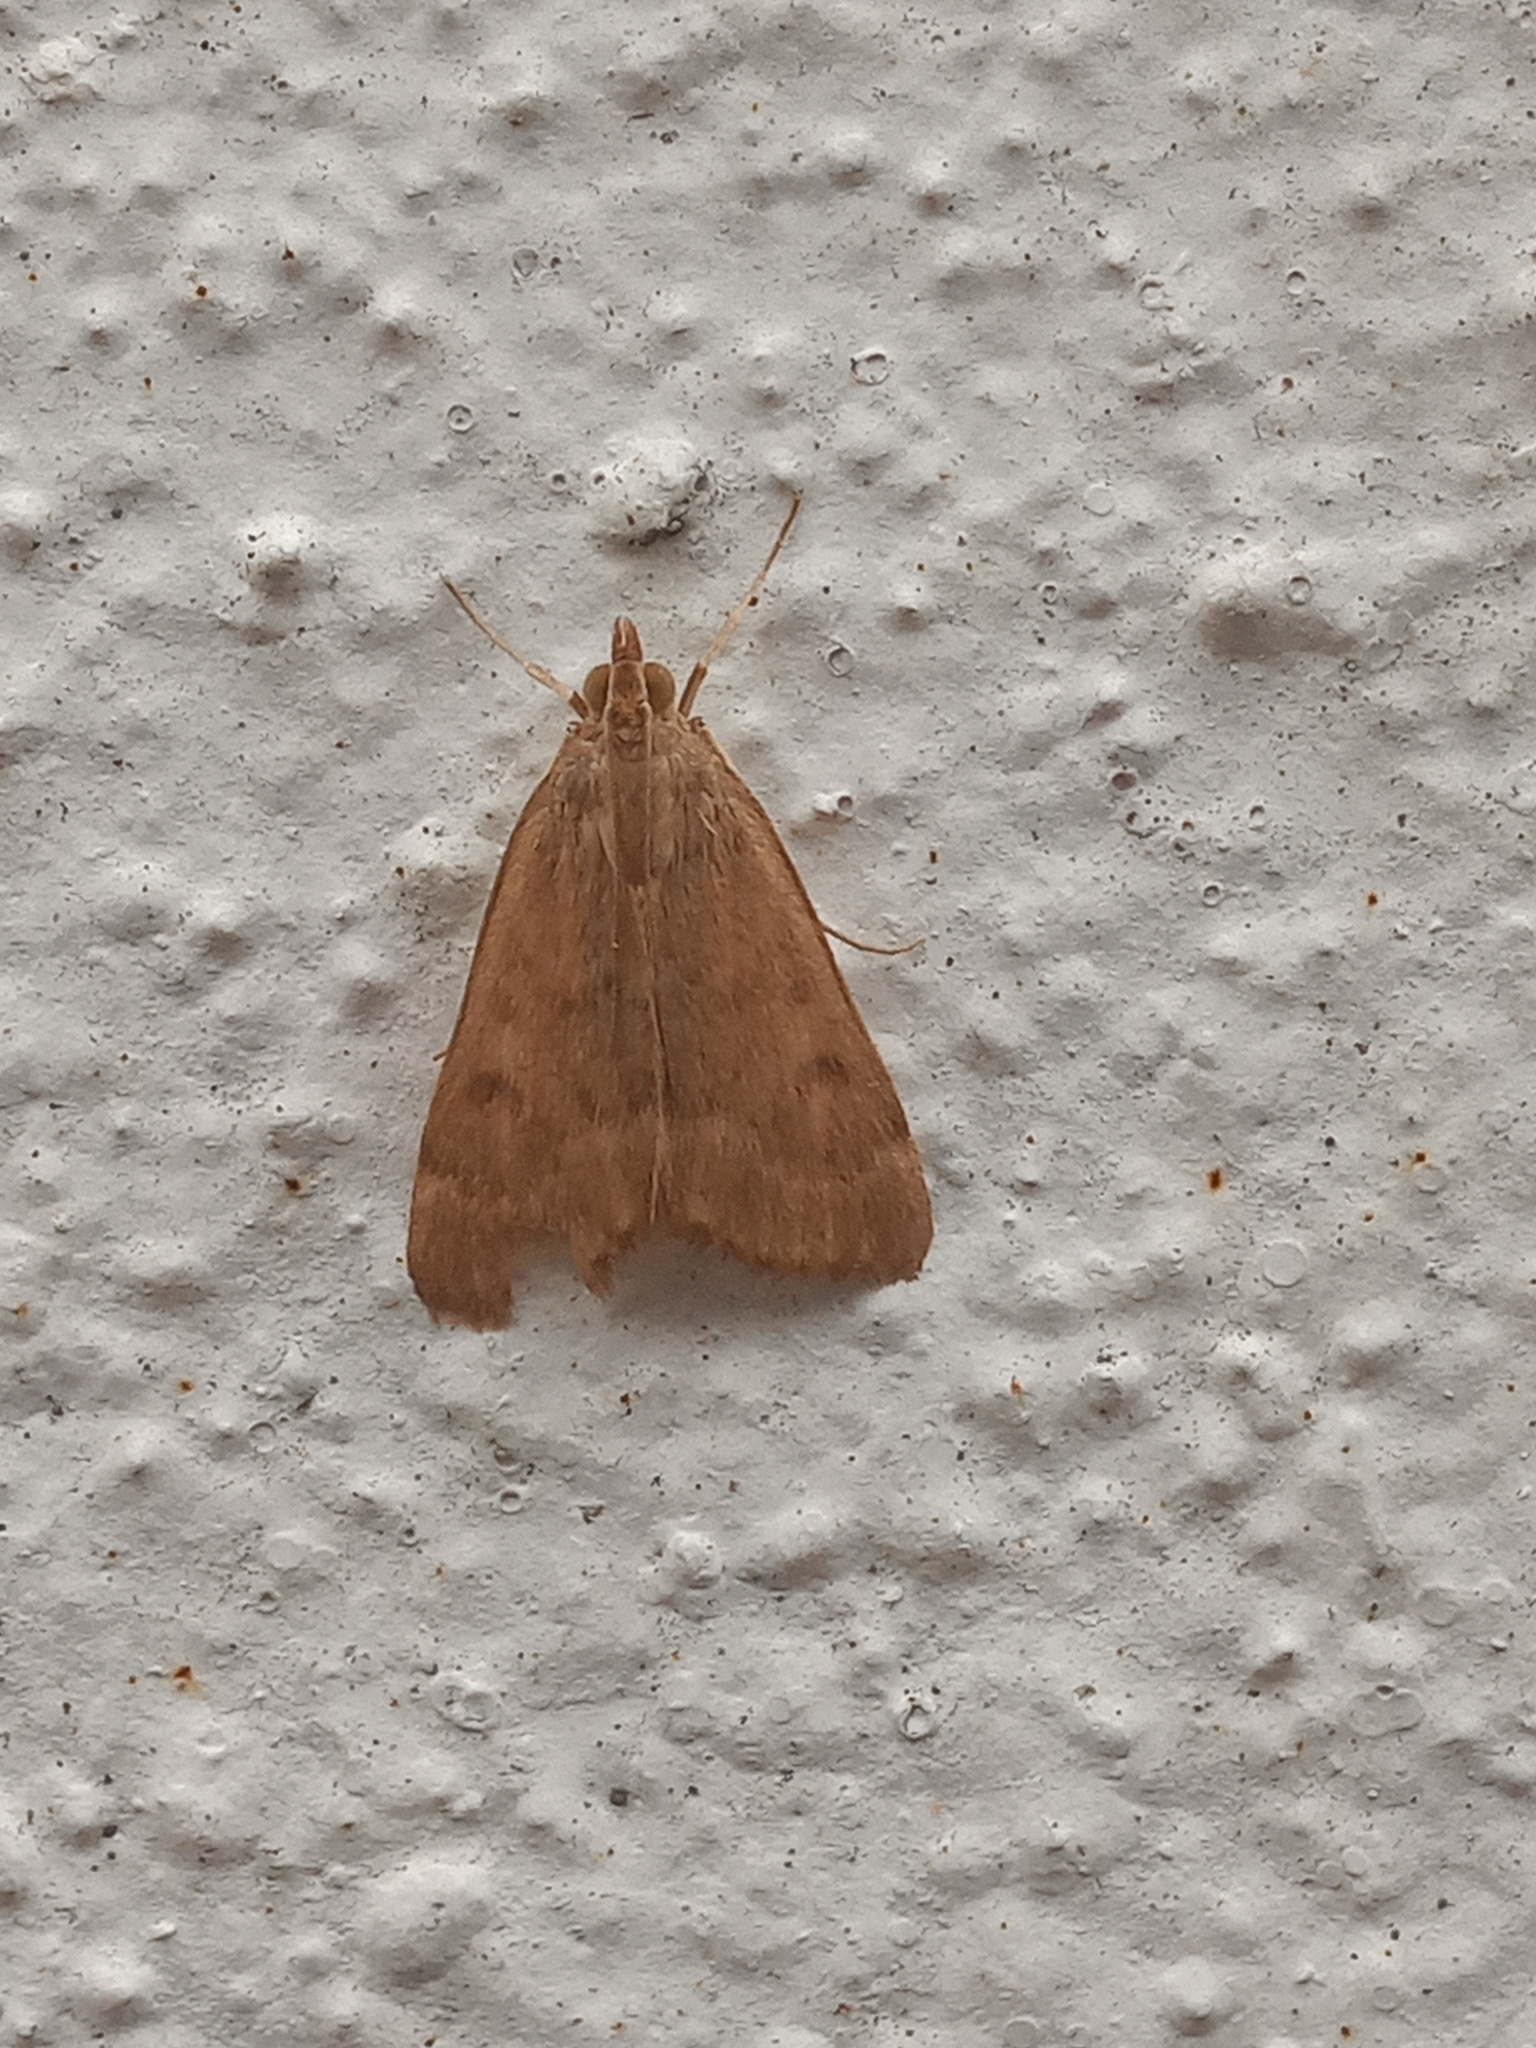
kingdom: Animalia
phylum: Arthropoda
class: Insecta
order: Lepidoptera
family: Crambidae
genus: Achyra
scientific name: Achyra rantalis
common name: Garden webworm
